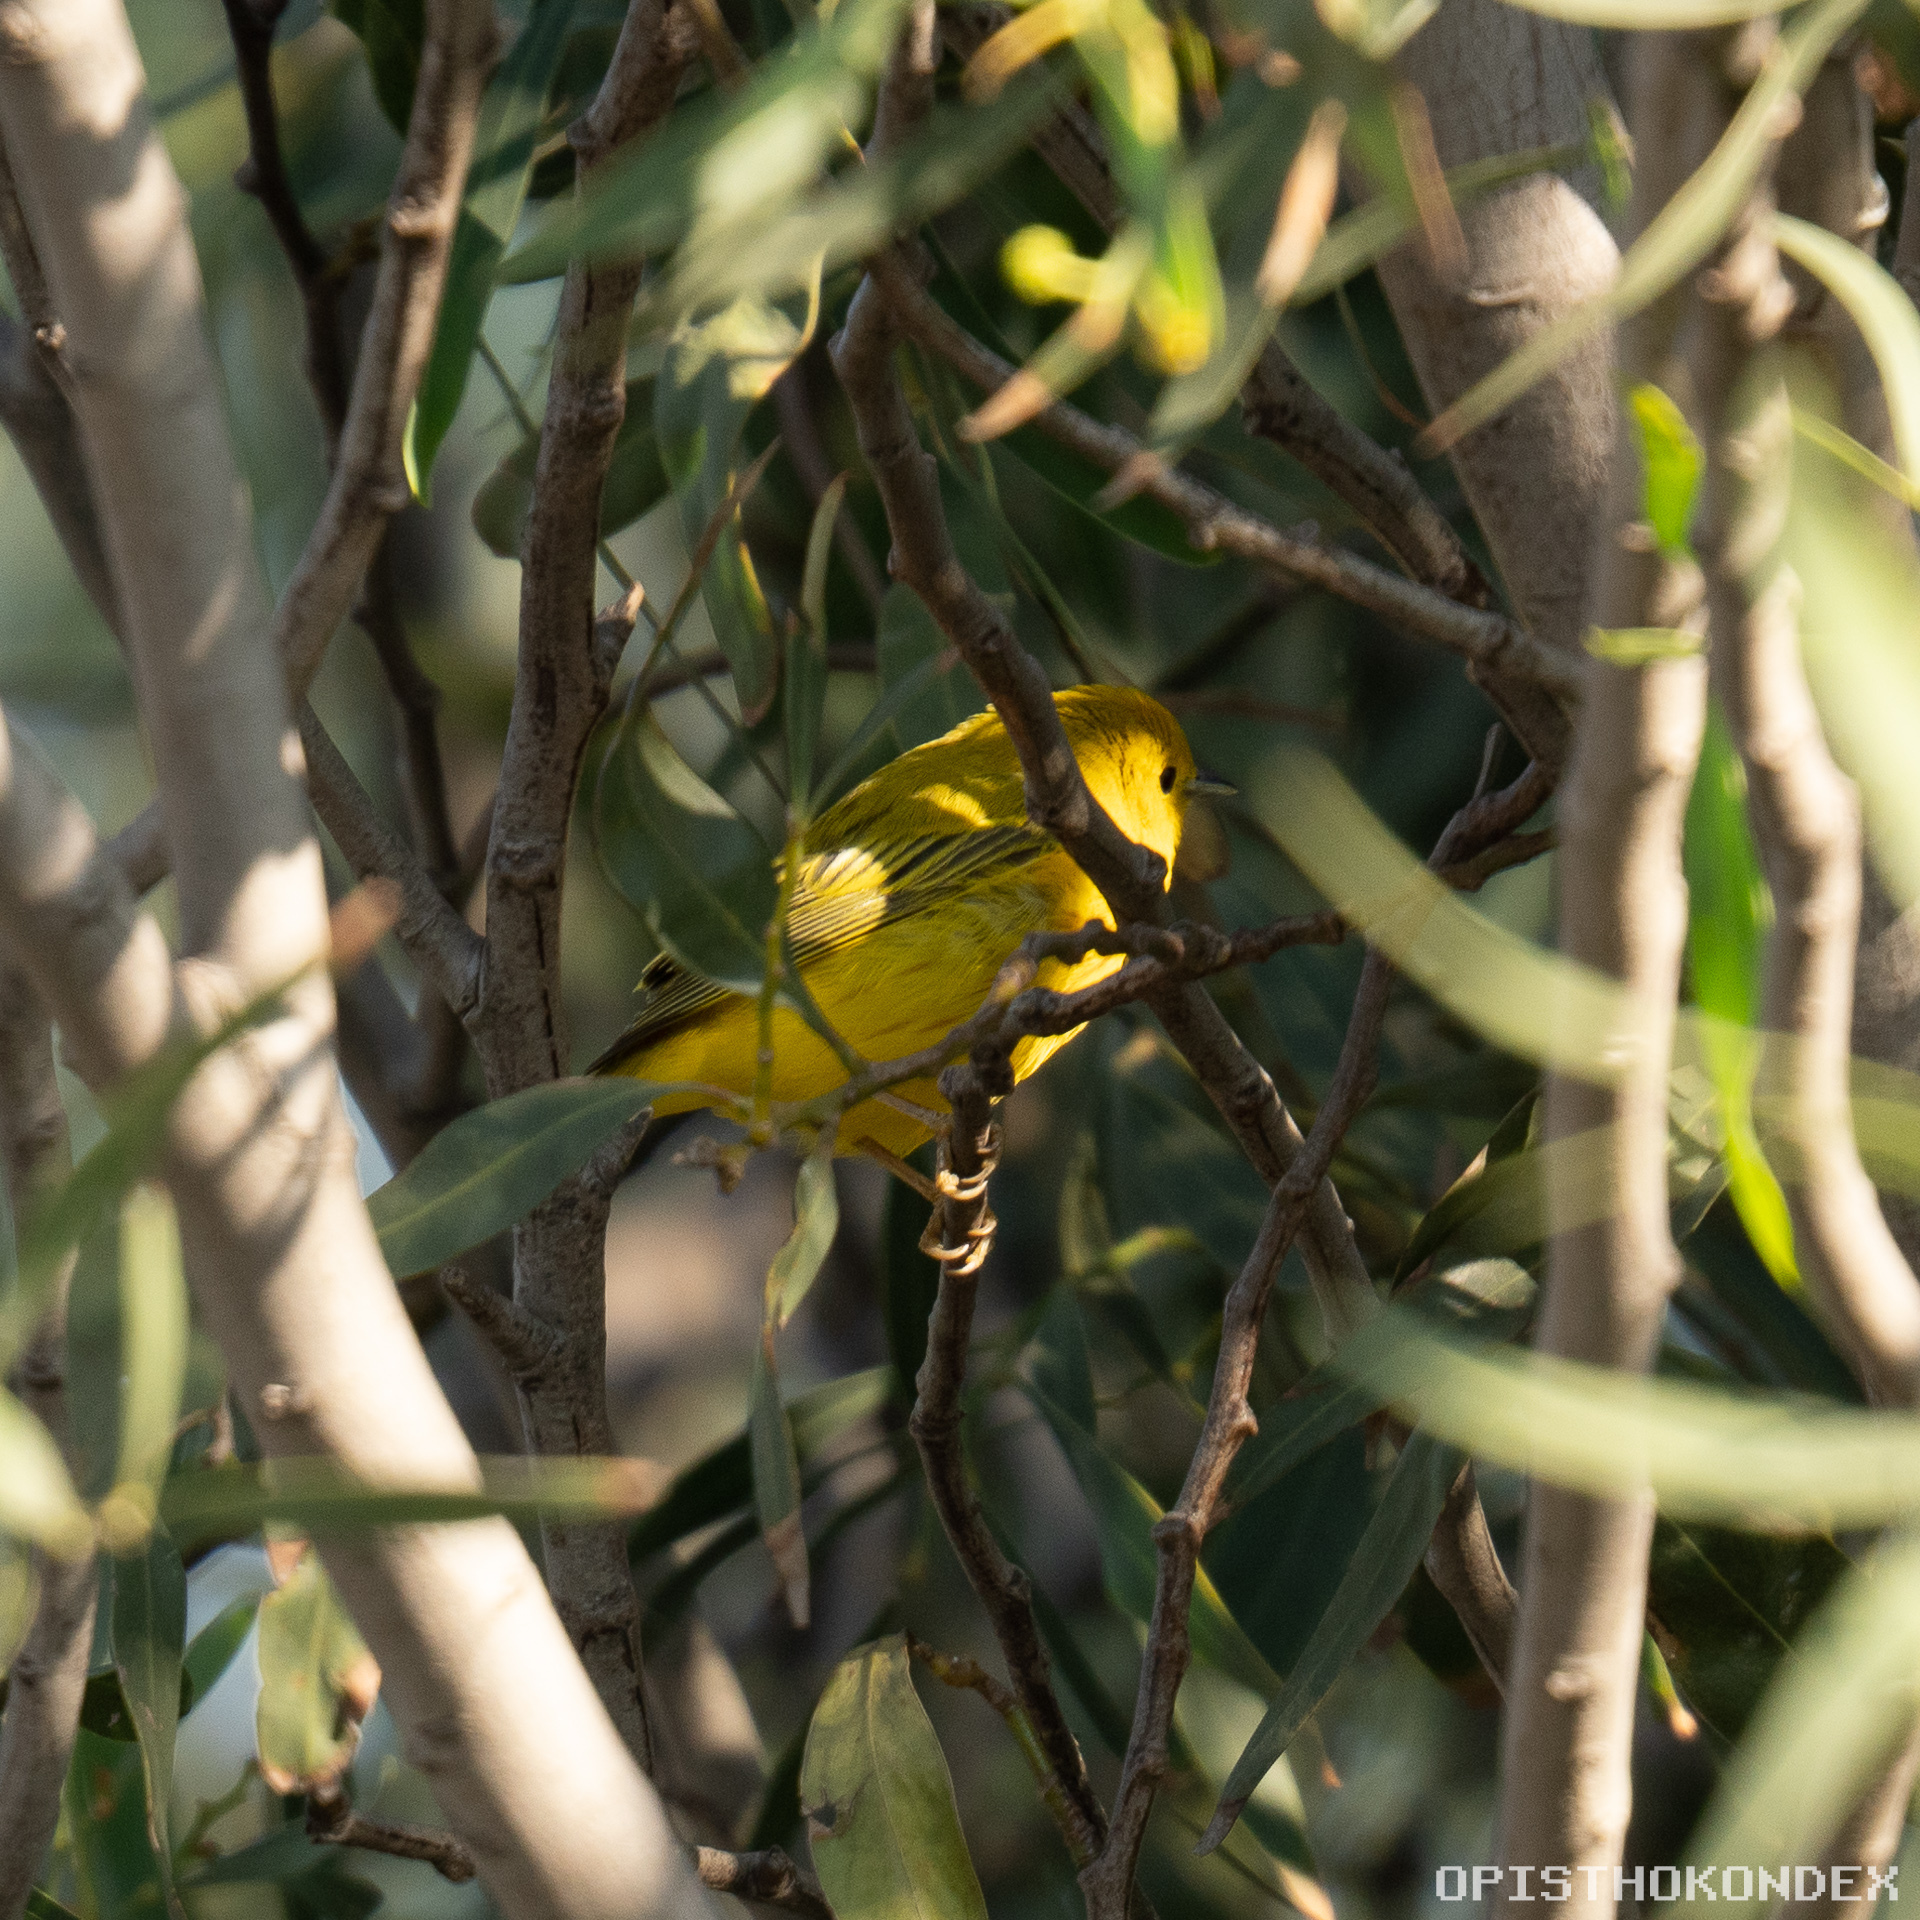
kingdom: Animalia
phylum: Chordata
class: Aves
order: Passeriformes
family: Parulidae
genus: Setophaga
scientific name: Setophaga petechia
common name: Yellow warbler
